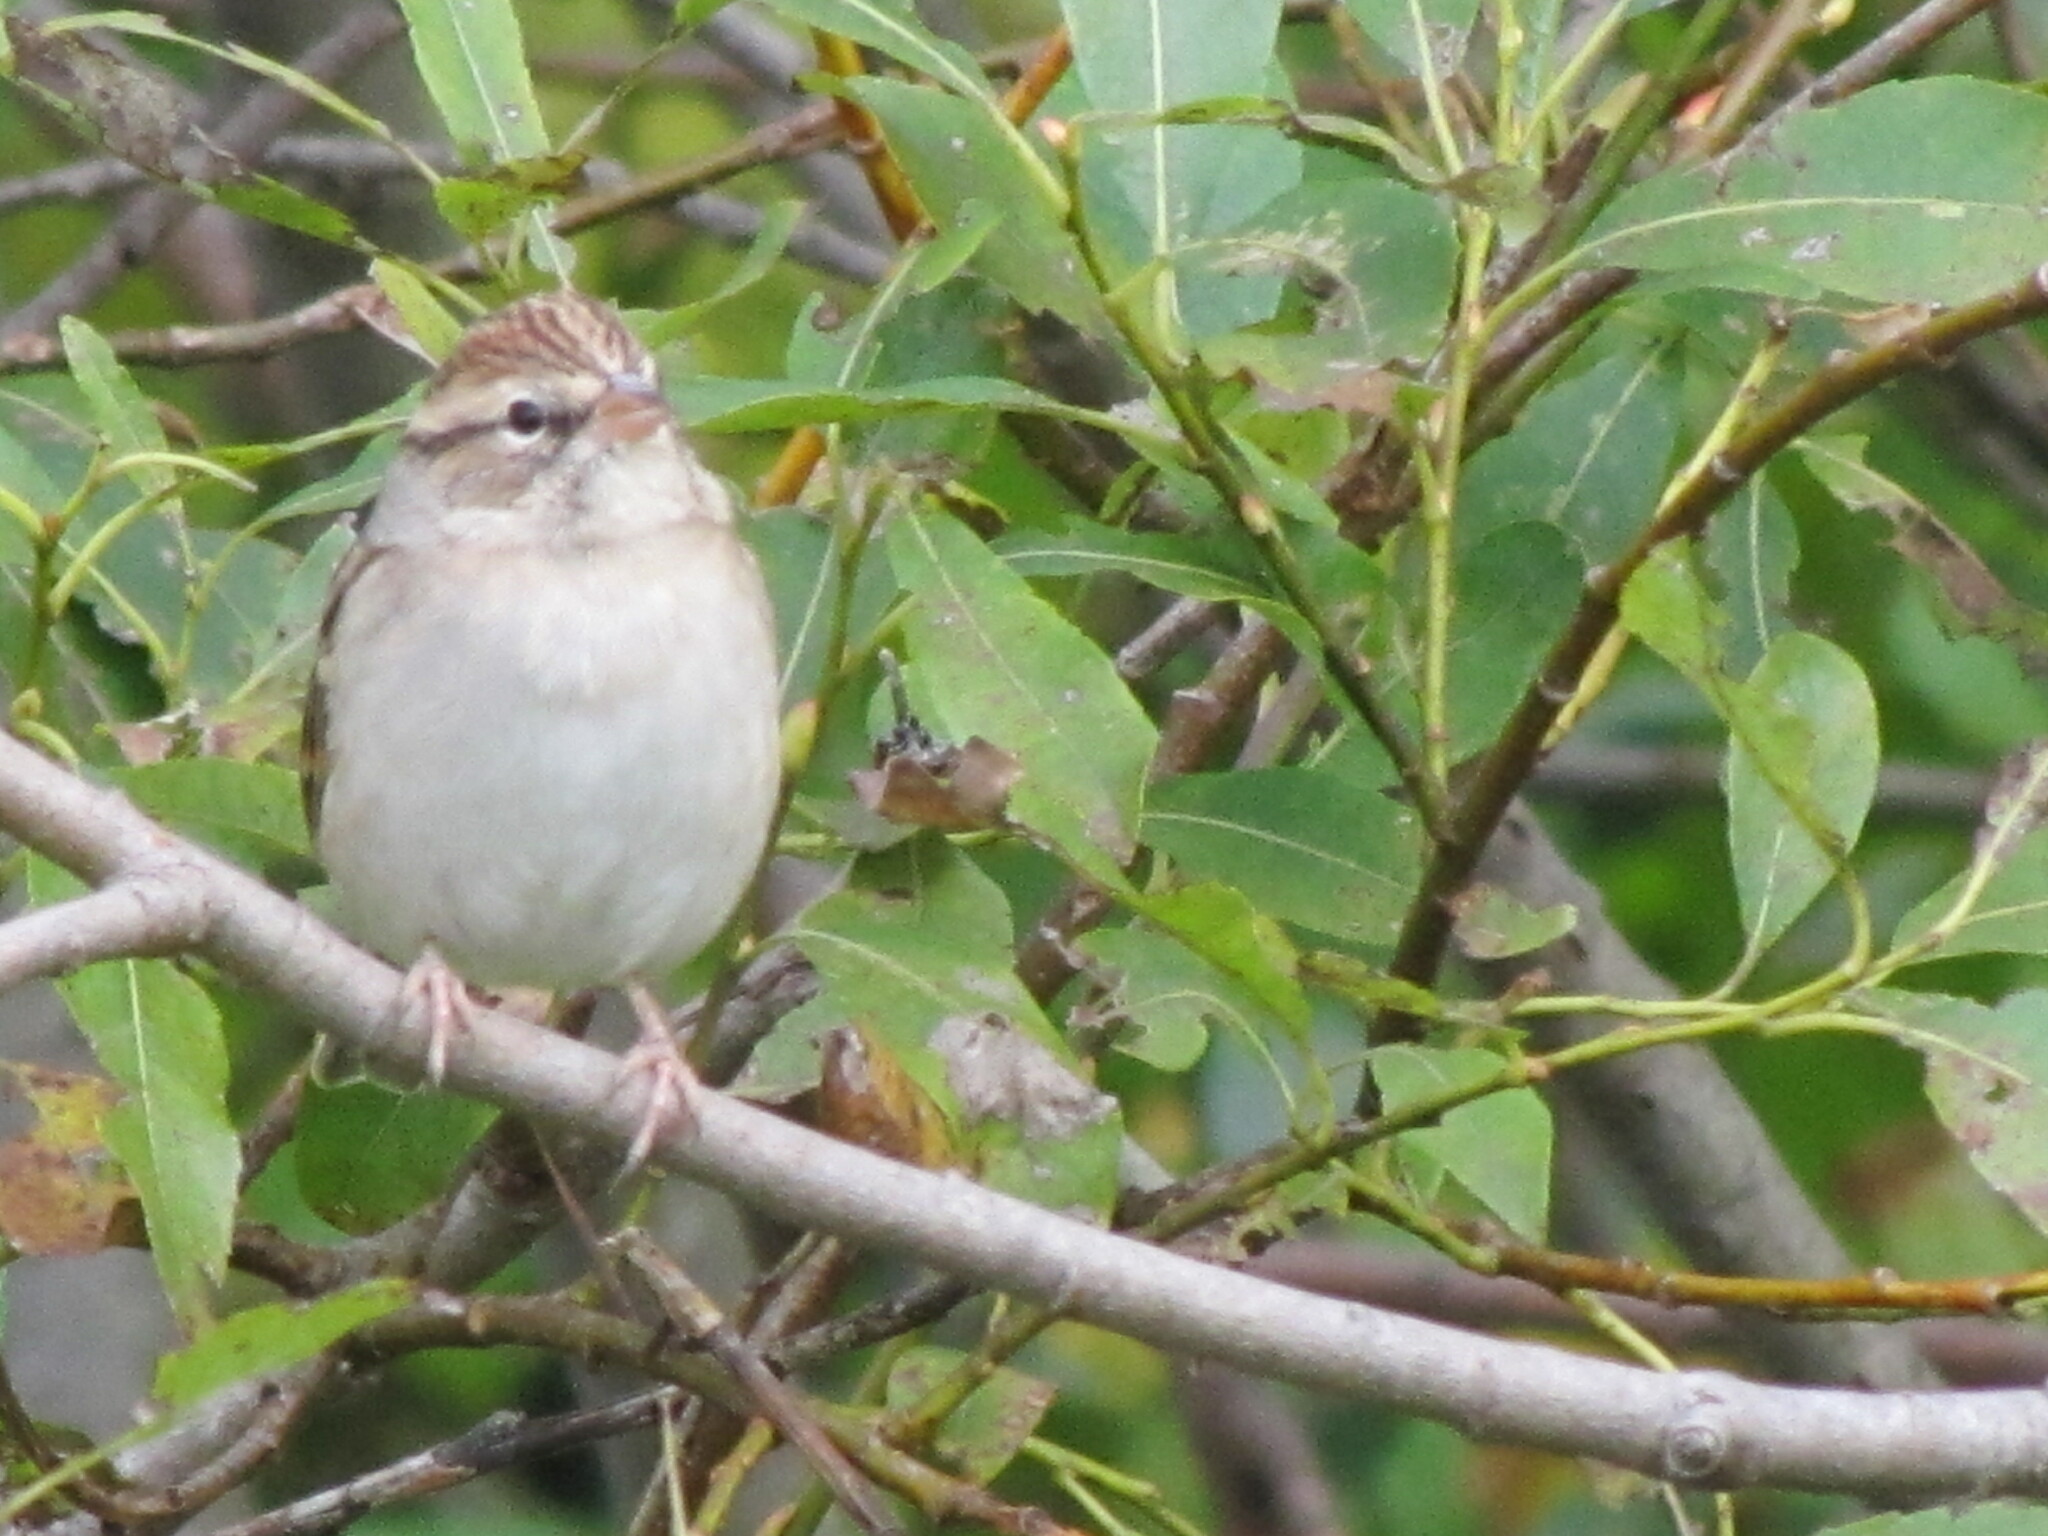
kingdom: Animalia
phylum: Chordata
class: Aves
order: Passeriformes
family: Passerellidae
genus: Spizella
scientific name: Spizella passerina
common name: Chipping sparrow
